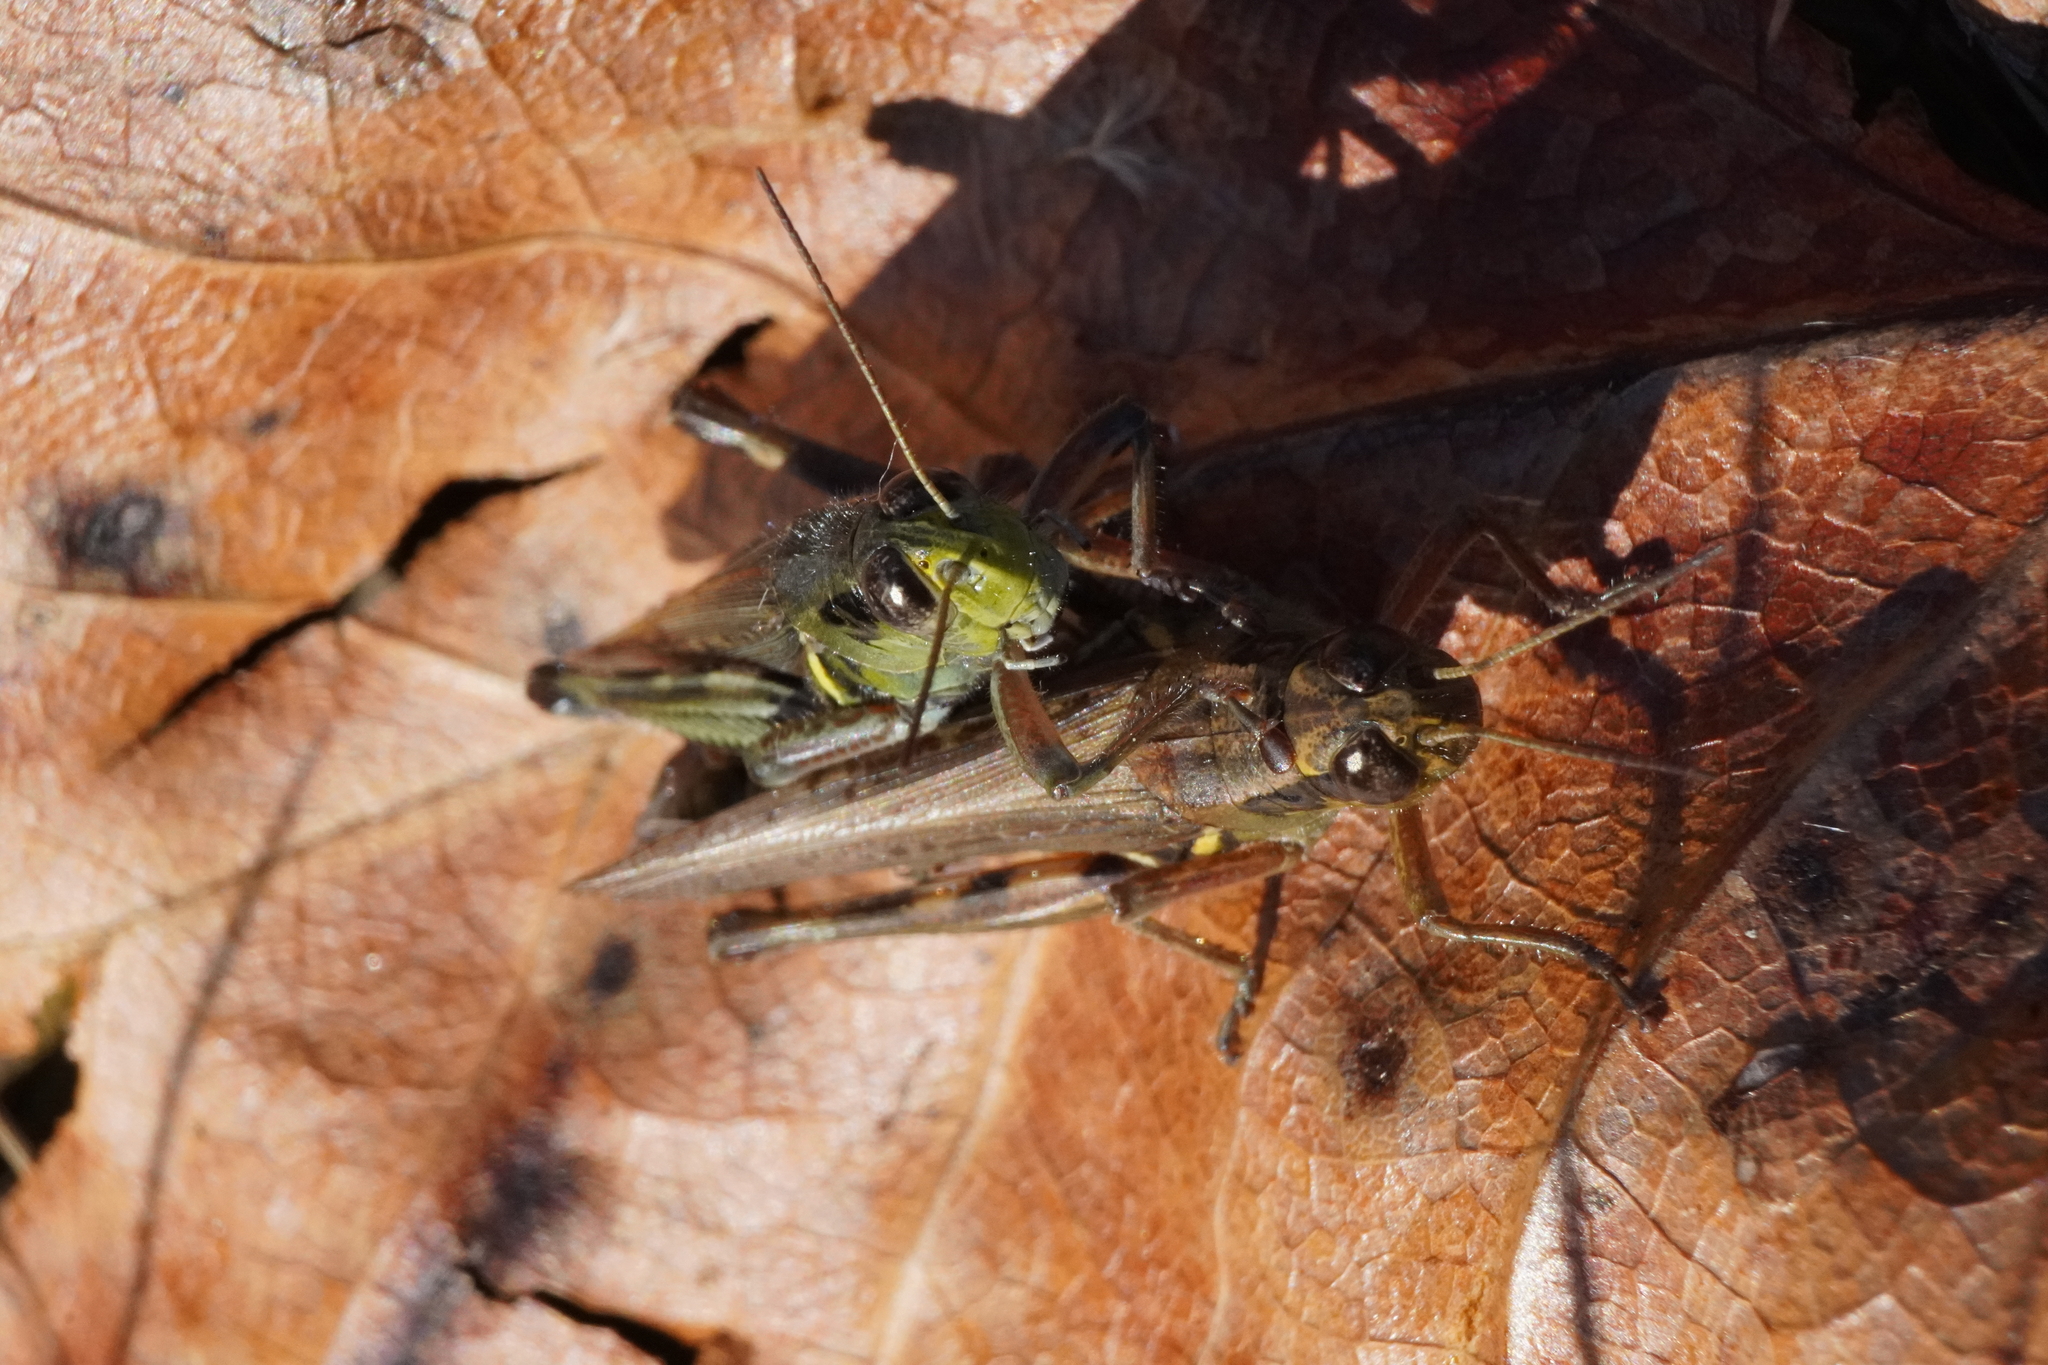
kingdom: Animalia
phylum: Arthropoda
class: Insecta
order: Orthoptera
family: Acrididae
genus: Melanoplus
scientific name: Melanoplus femurrubrum
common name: Red-legged grasshopper
